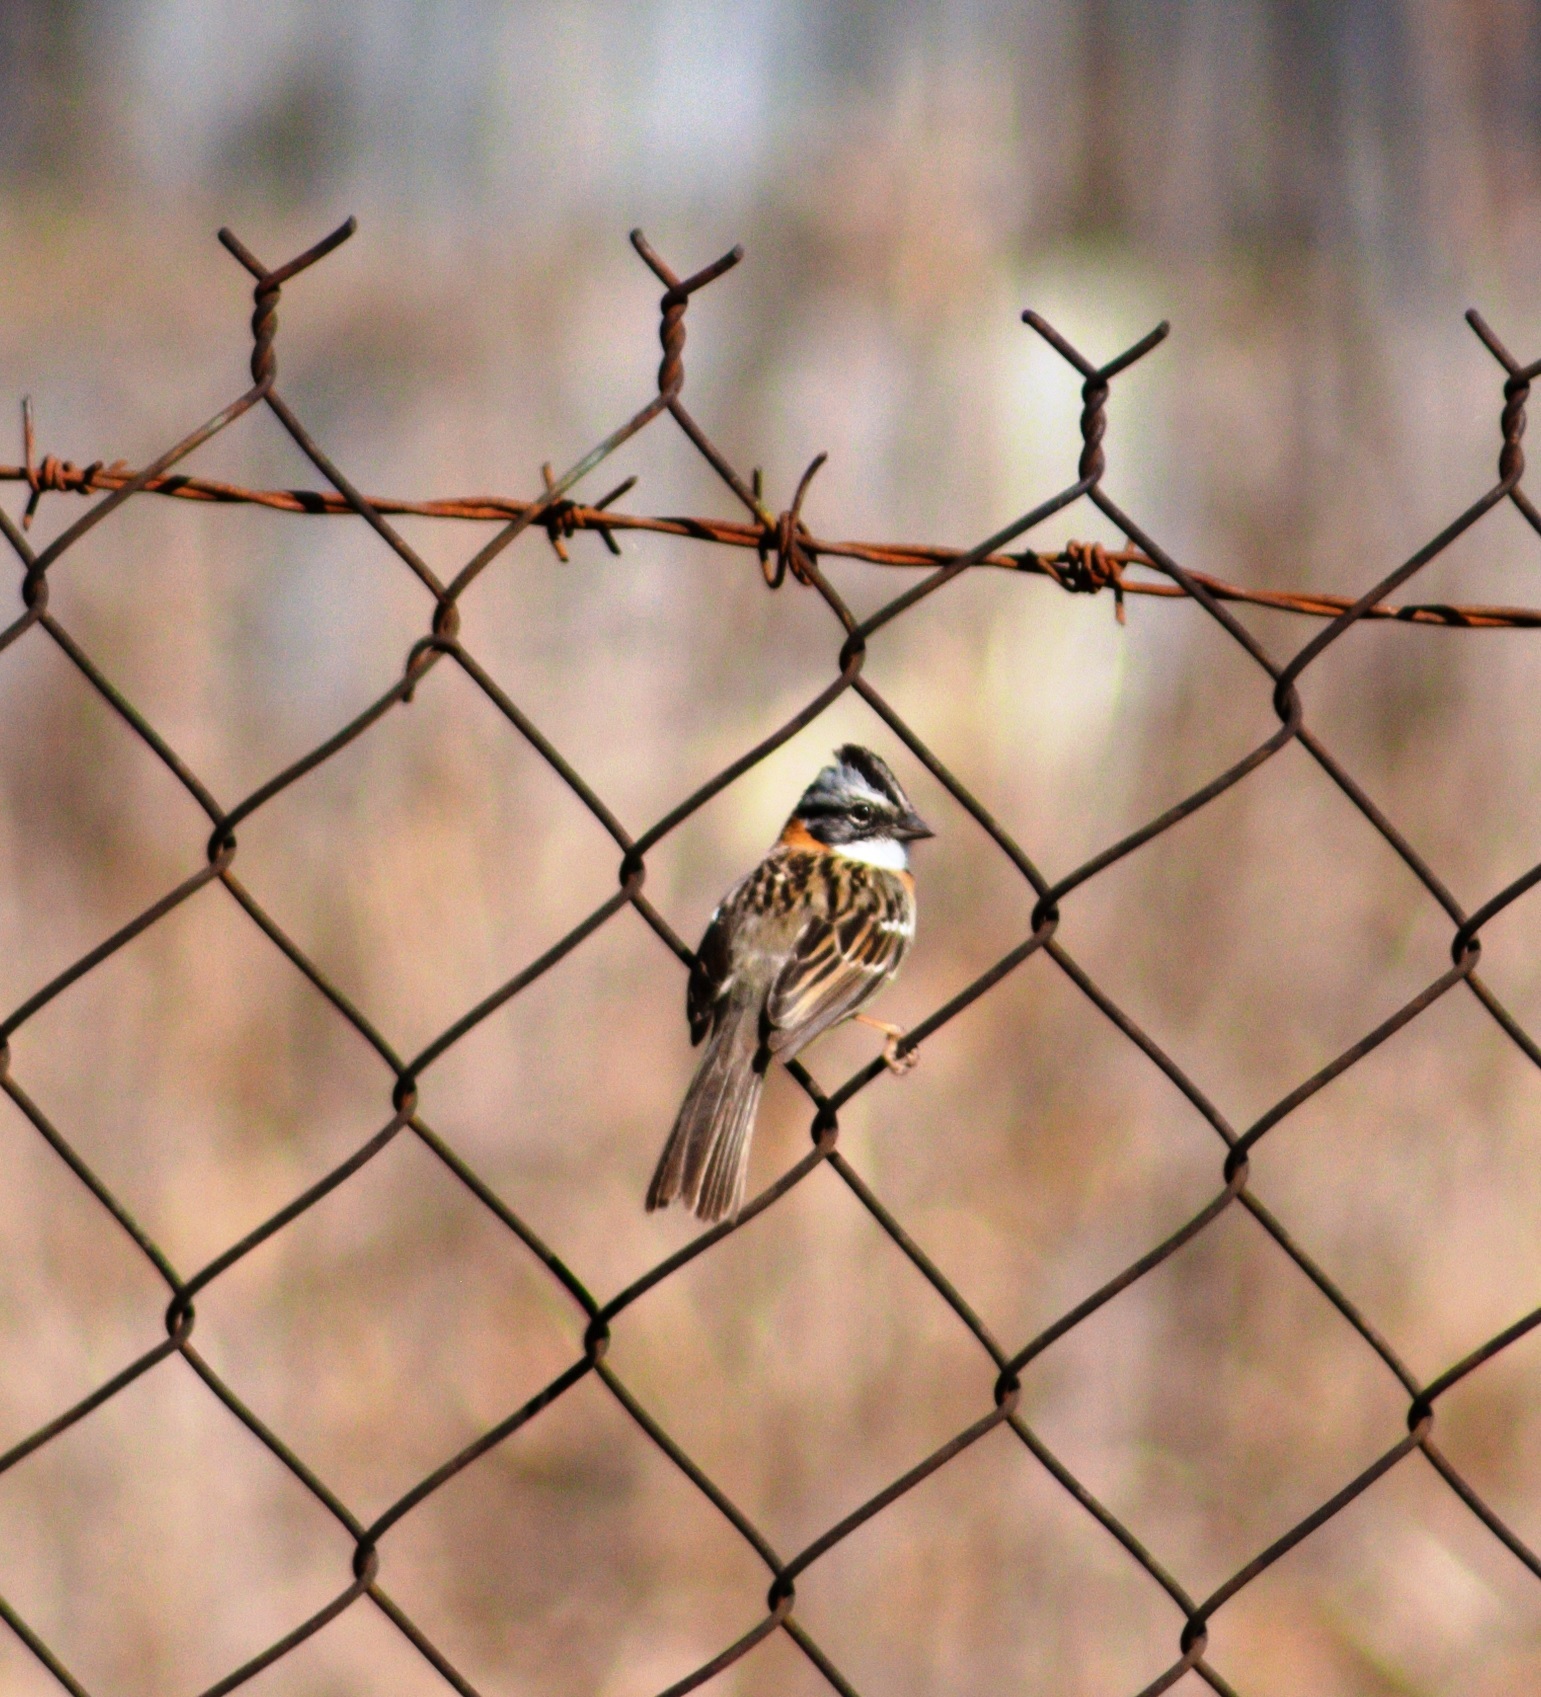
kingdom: Animalia
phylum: Chordata
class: Aves
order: Passeriformes
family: Passerellidae
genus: Zonotrichia
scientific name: Zonotrichia capensis
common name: Rufous-collared sparrow
